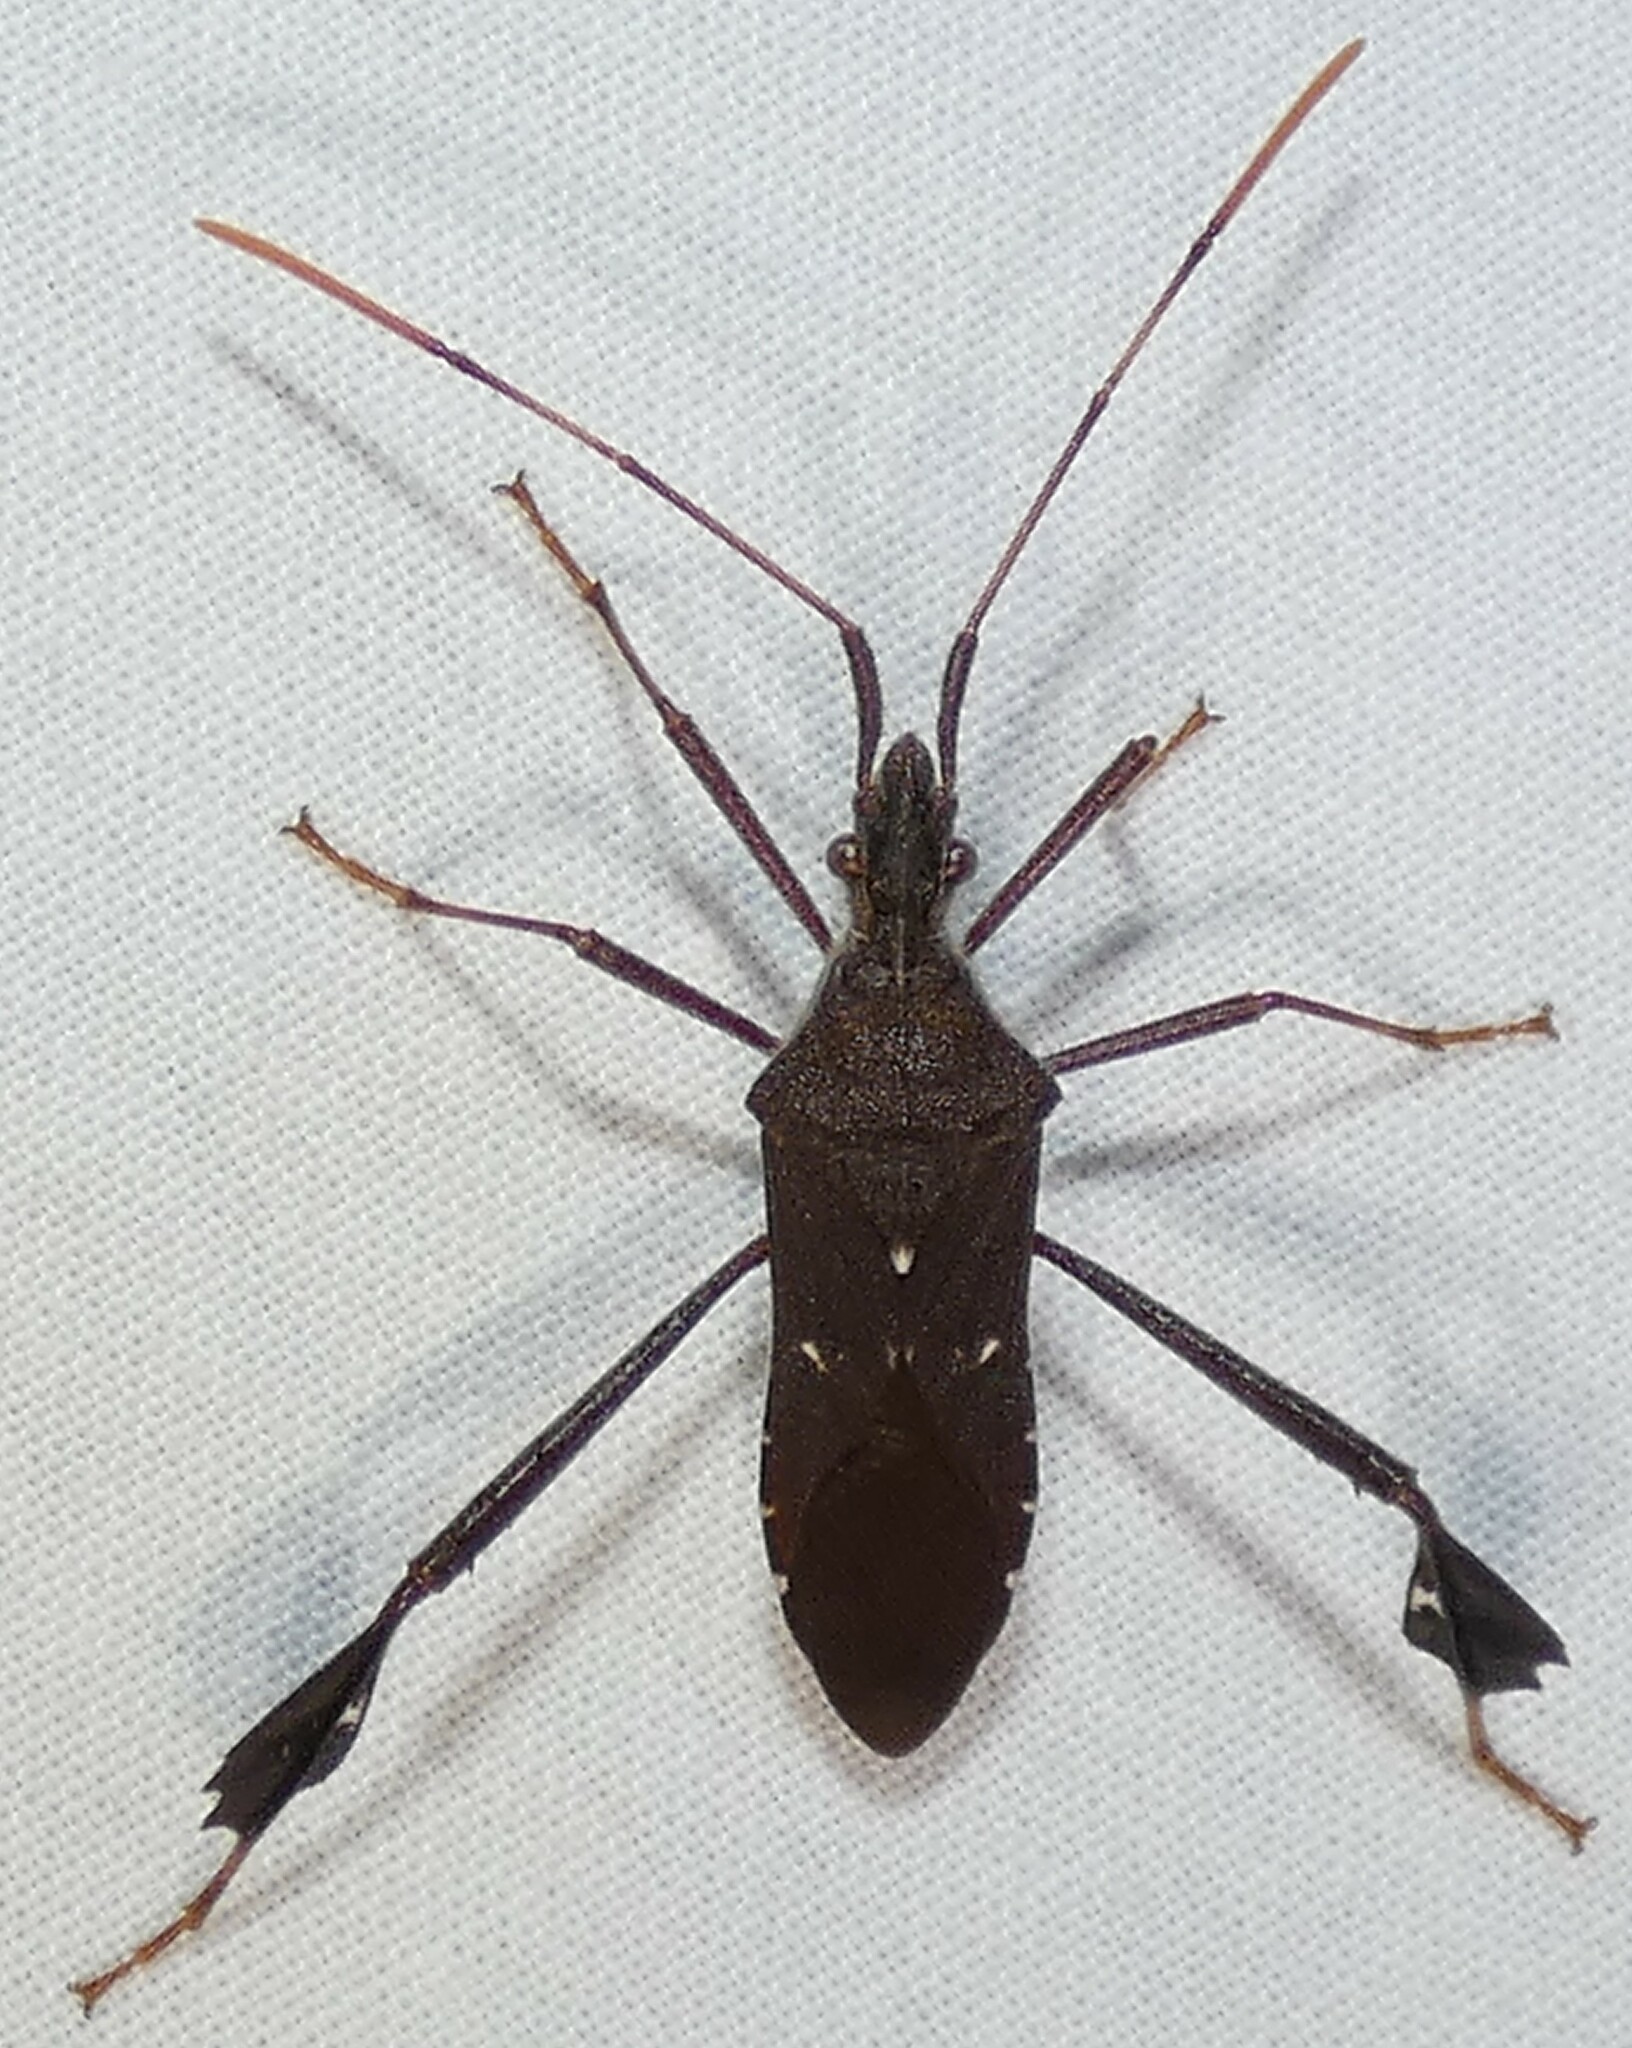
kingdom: Animalia
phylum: Arthropoda
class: Insecta
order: Hemiptera
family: Coreidae
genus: Leptoglossus
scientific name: Leptoglossus oppositus
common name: Northern leaf-footed bug
